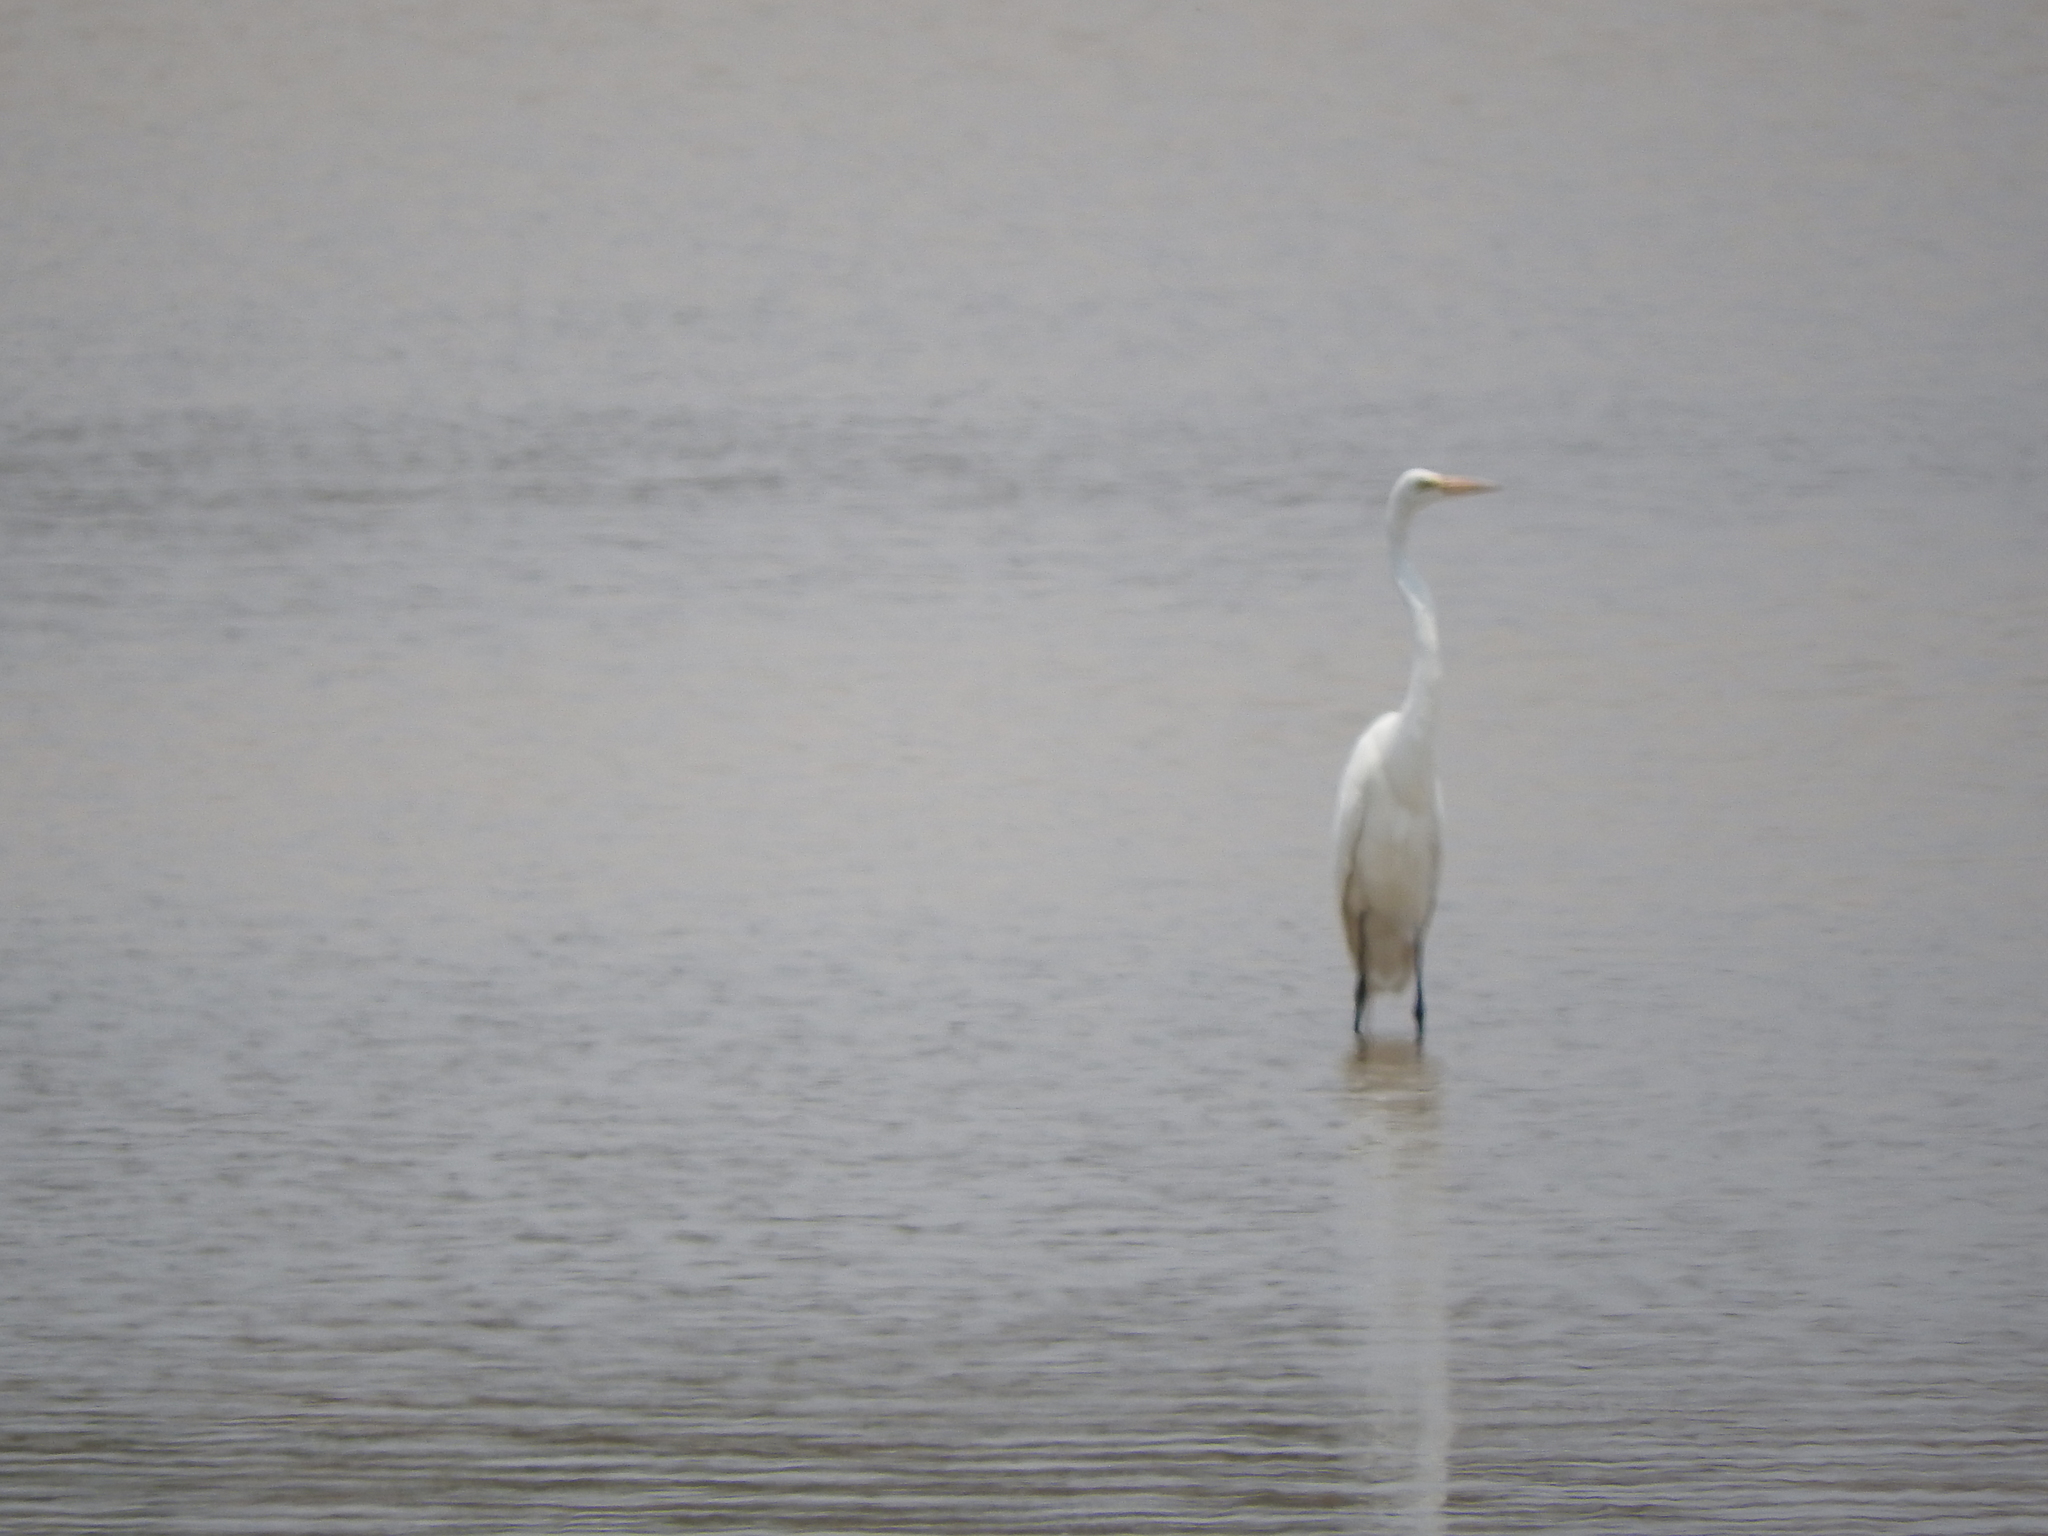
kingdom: Animalia
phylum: Chordata
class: Aves
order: Pelecaniformes
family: Ardeidae
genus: Ardea
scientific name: Ardea alba
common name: Great egret
